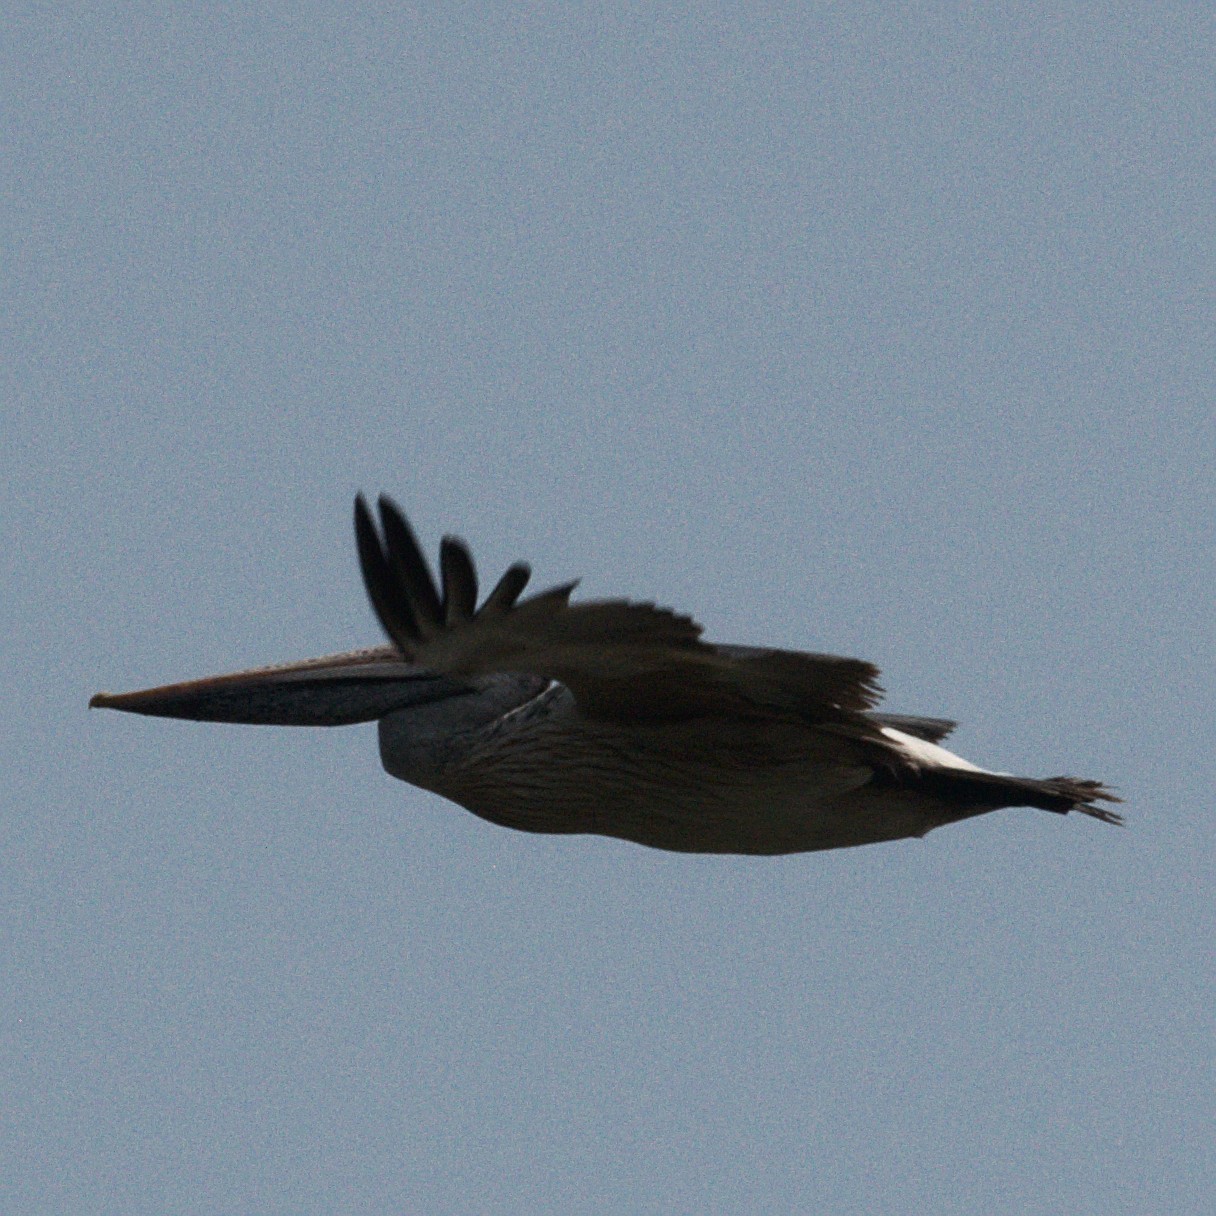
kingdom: Animalia
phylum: Chordata
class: Aves
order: Pelecaniformes
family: Pelecanidae
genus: Pelecanus
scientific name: Pelecanus philippensis
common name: Spot-billed pelican
